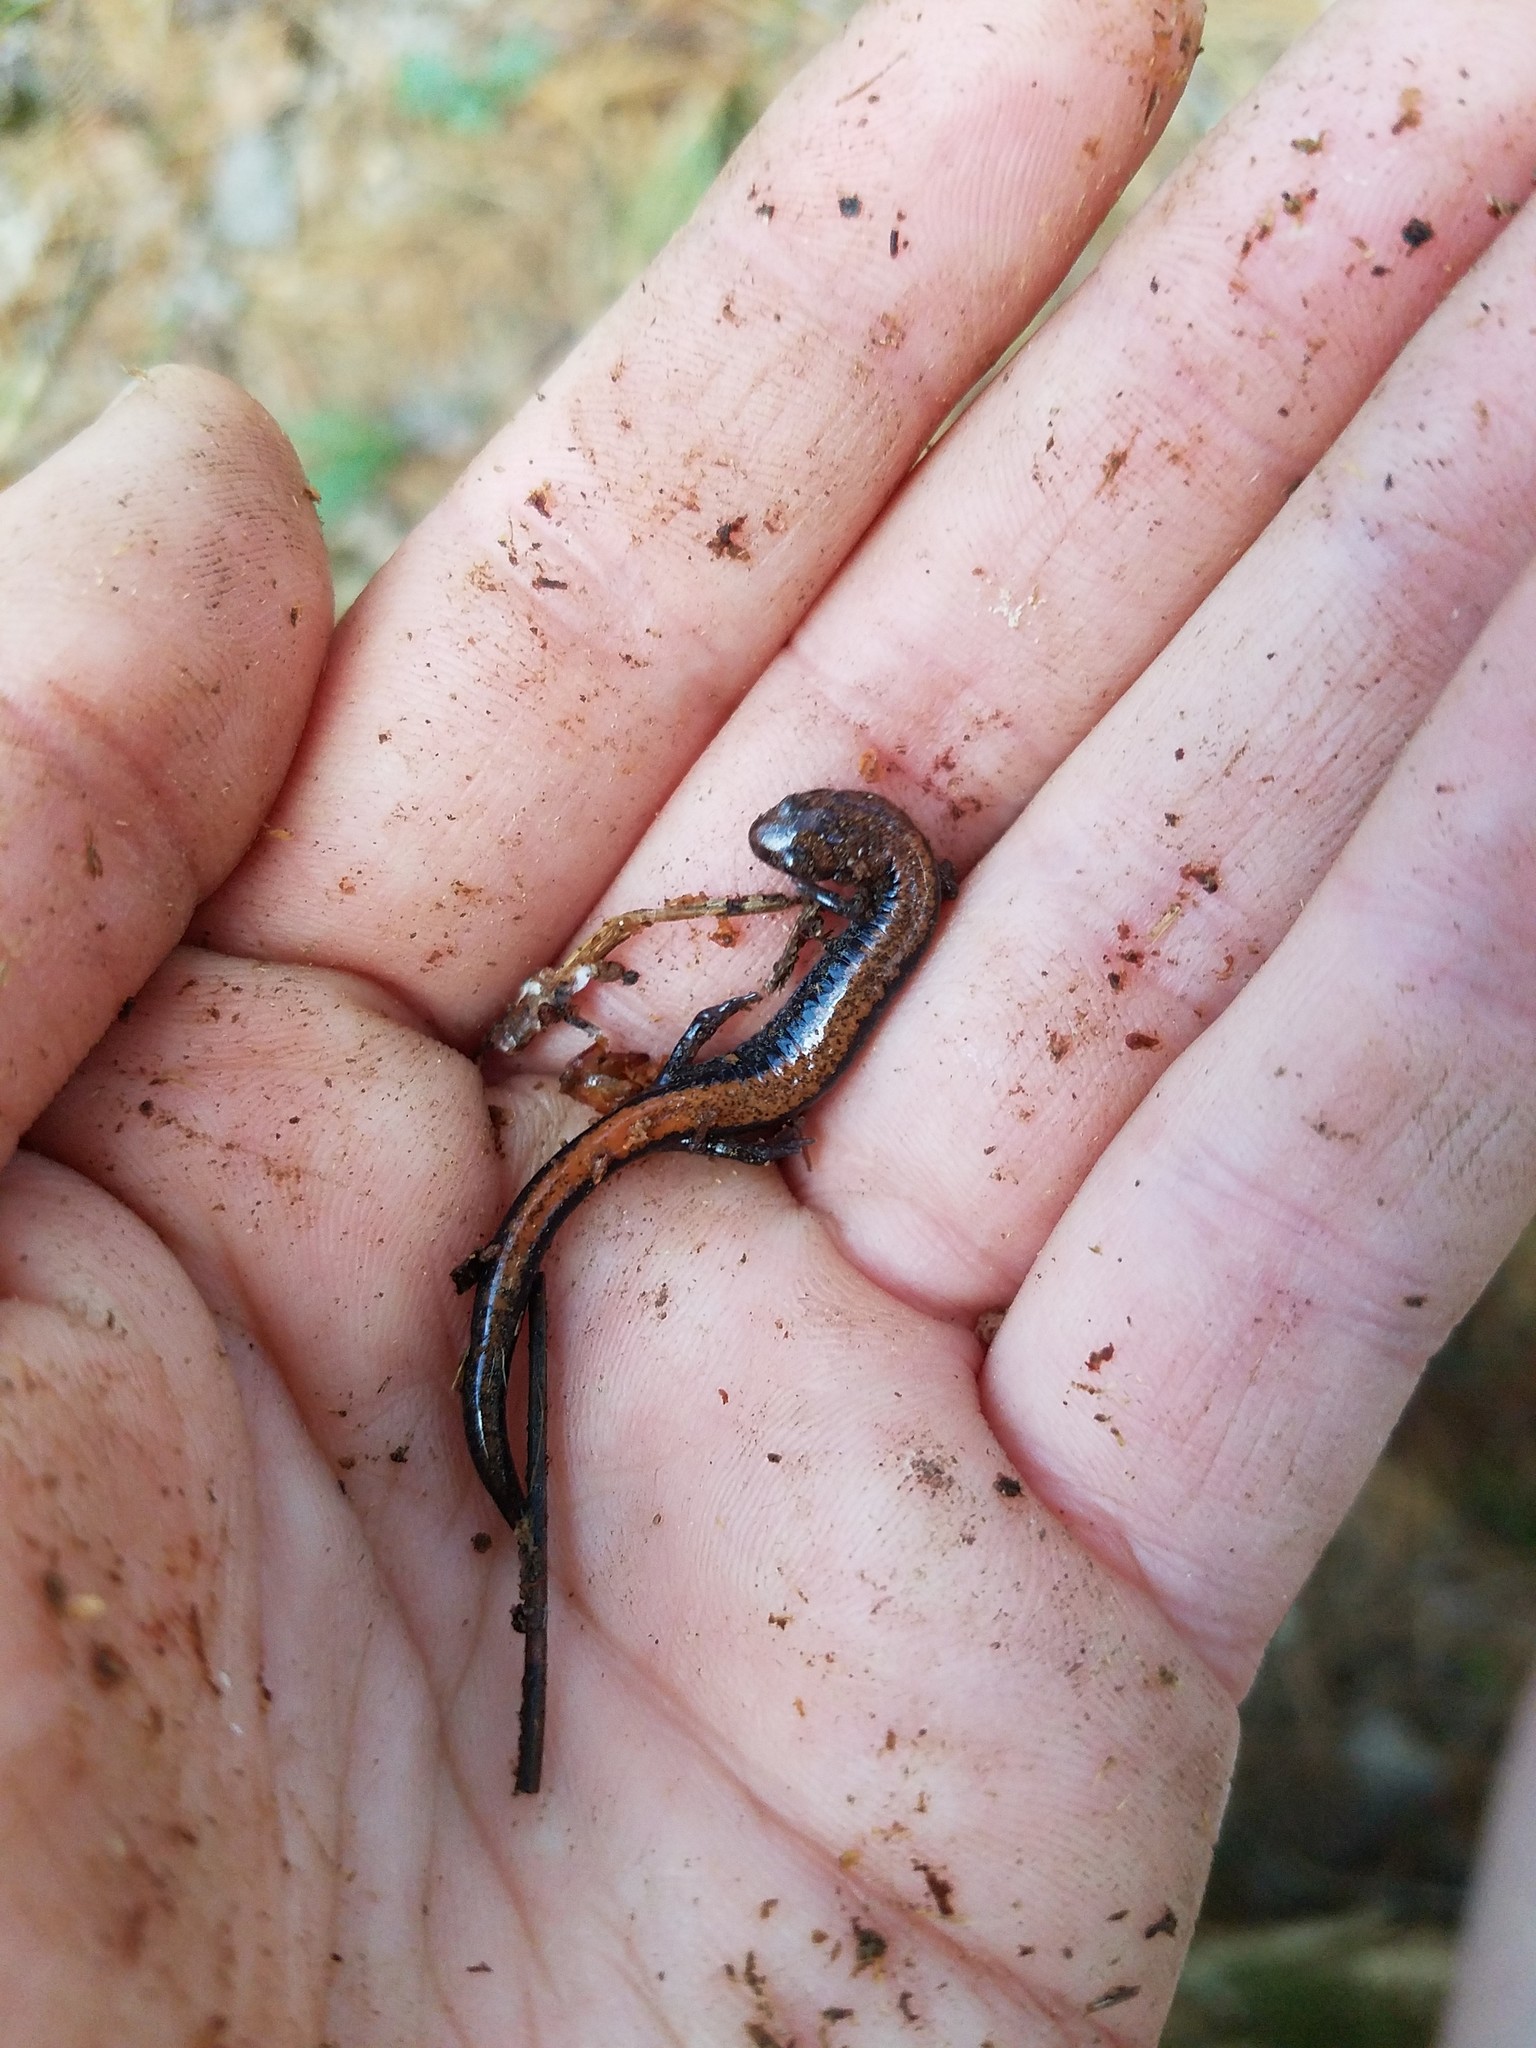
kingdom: Animalia
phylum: Chordata
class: Amphibia
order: Caudata
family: Plethodontidae
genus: Plethodon
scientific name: Plethodon cinereus
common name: Redback salamander
